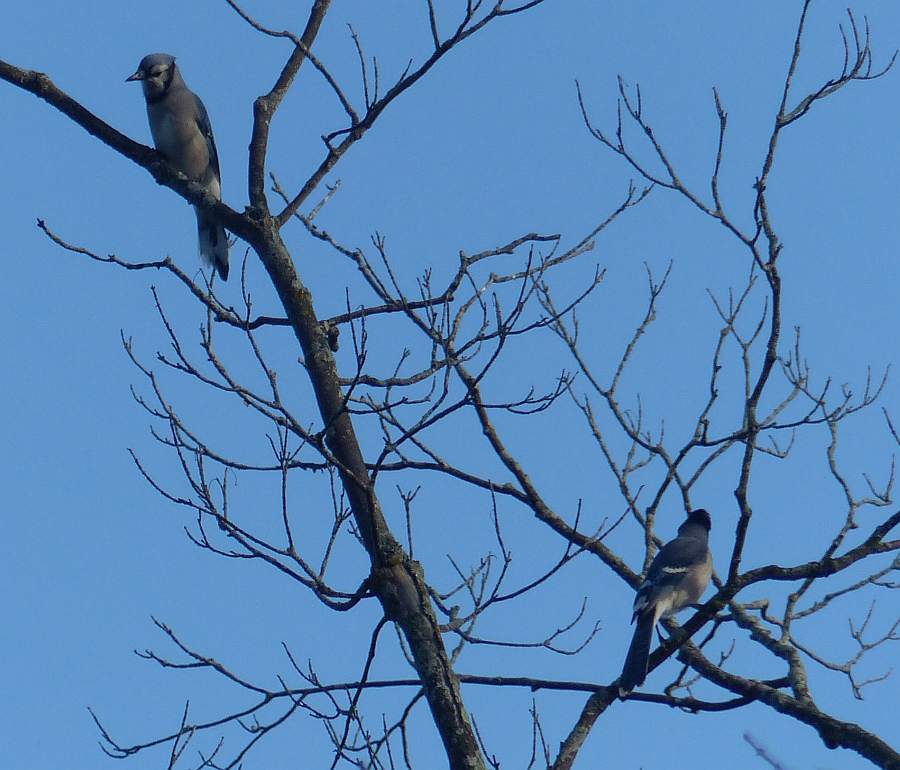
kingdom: Animalia
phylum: Chordata
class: Aves
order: Passeriformes
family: Corvidae
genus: Cyanocitta
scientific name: Cyanocitta cristata
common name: Blue jay
